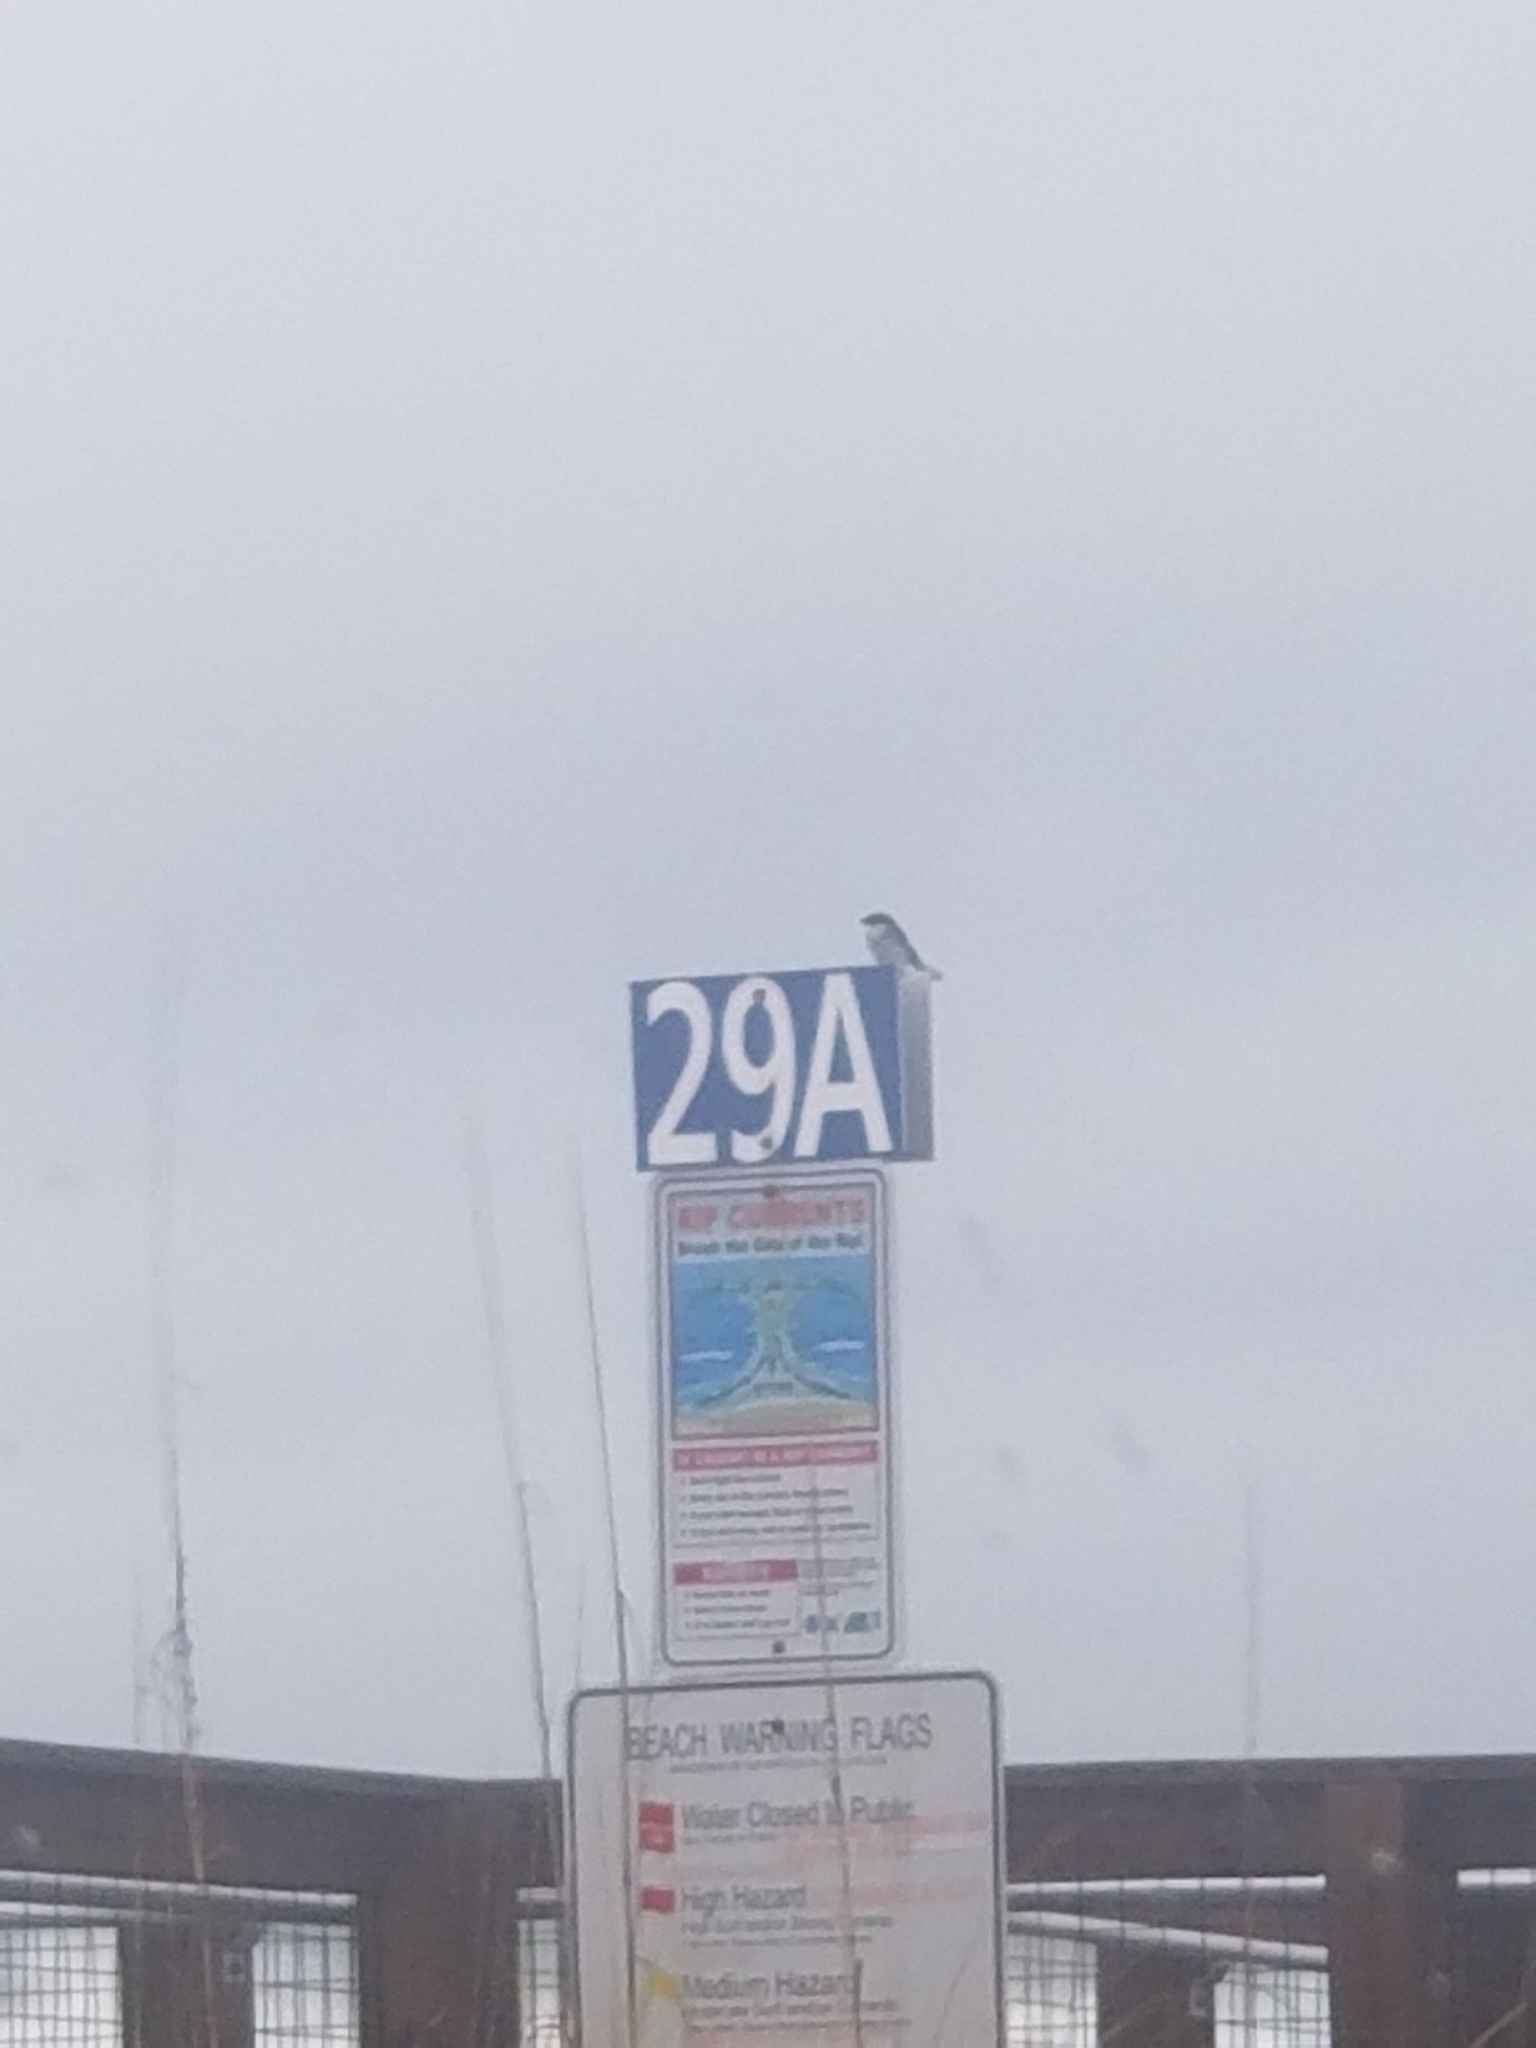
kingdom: Animalia
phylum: Chordata
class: Aves
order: Passeriformes
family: Laniidae
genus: Lanius
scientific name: Lanius ludovicianus
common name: Loggerhead shrike
